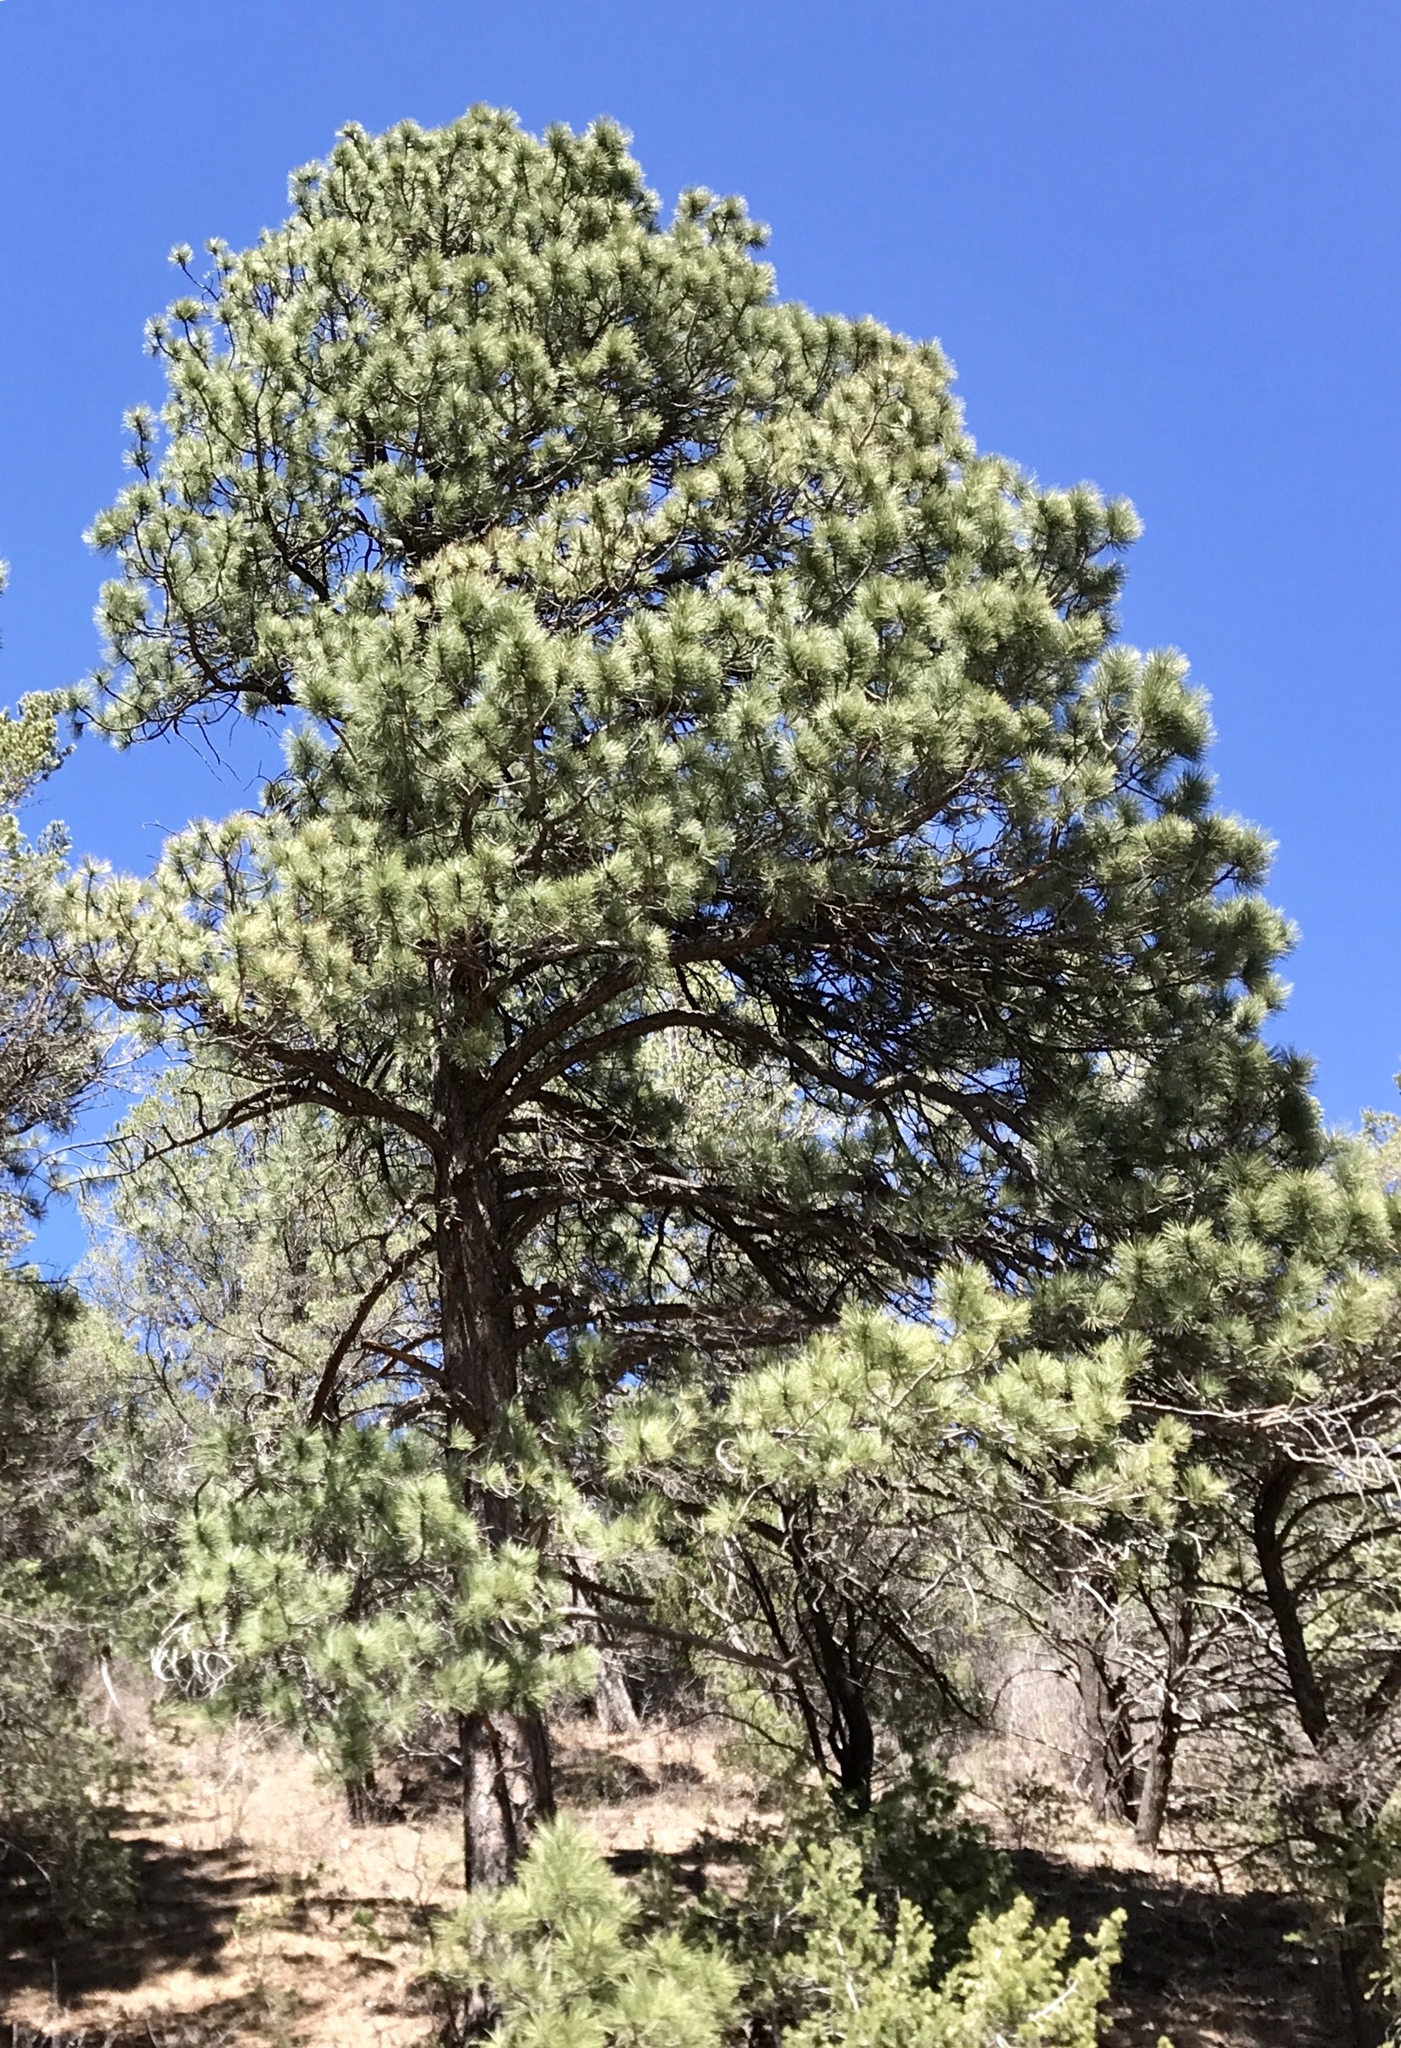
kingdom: Plantae
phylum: Tracheophyta
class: Pinopsida
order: Pinales
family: Pinaceae
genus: Pinus
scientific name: Pinus ponderosa
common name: Western yellow-pine
